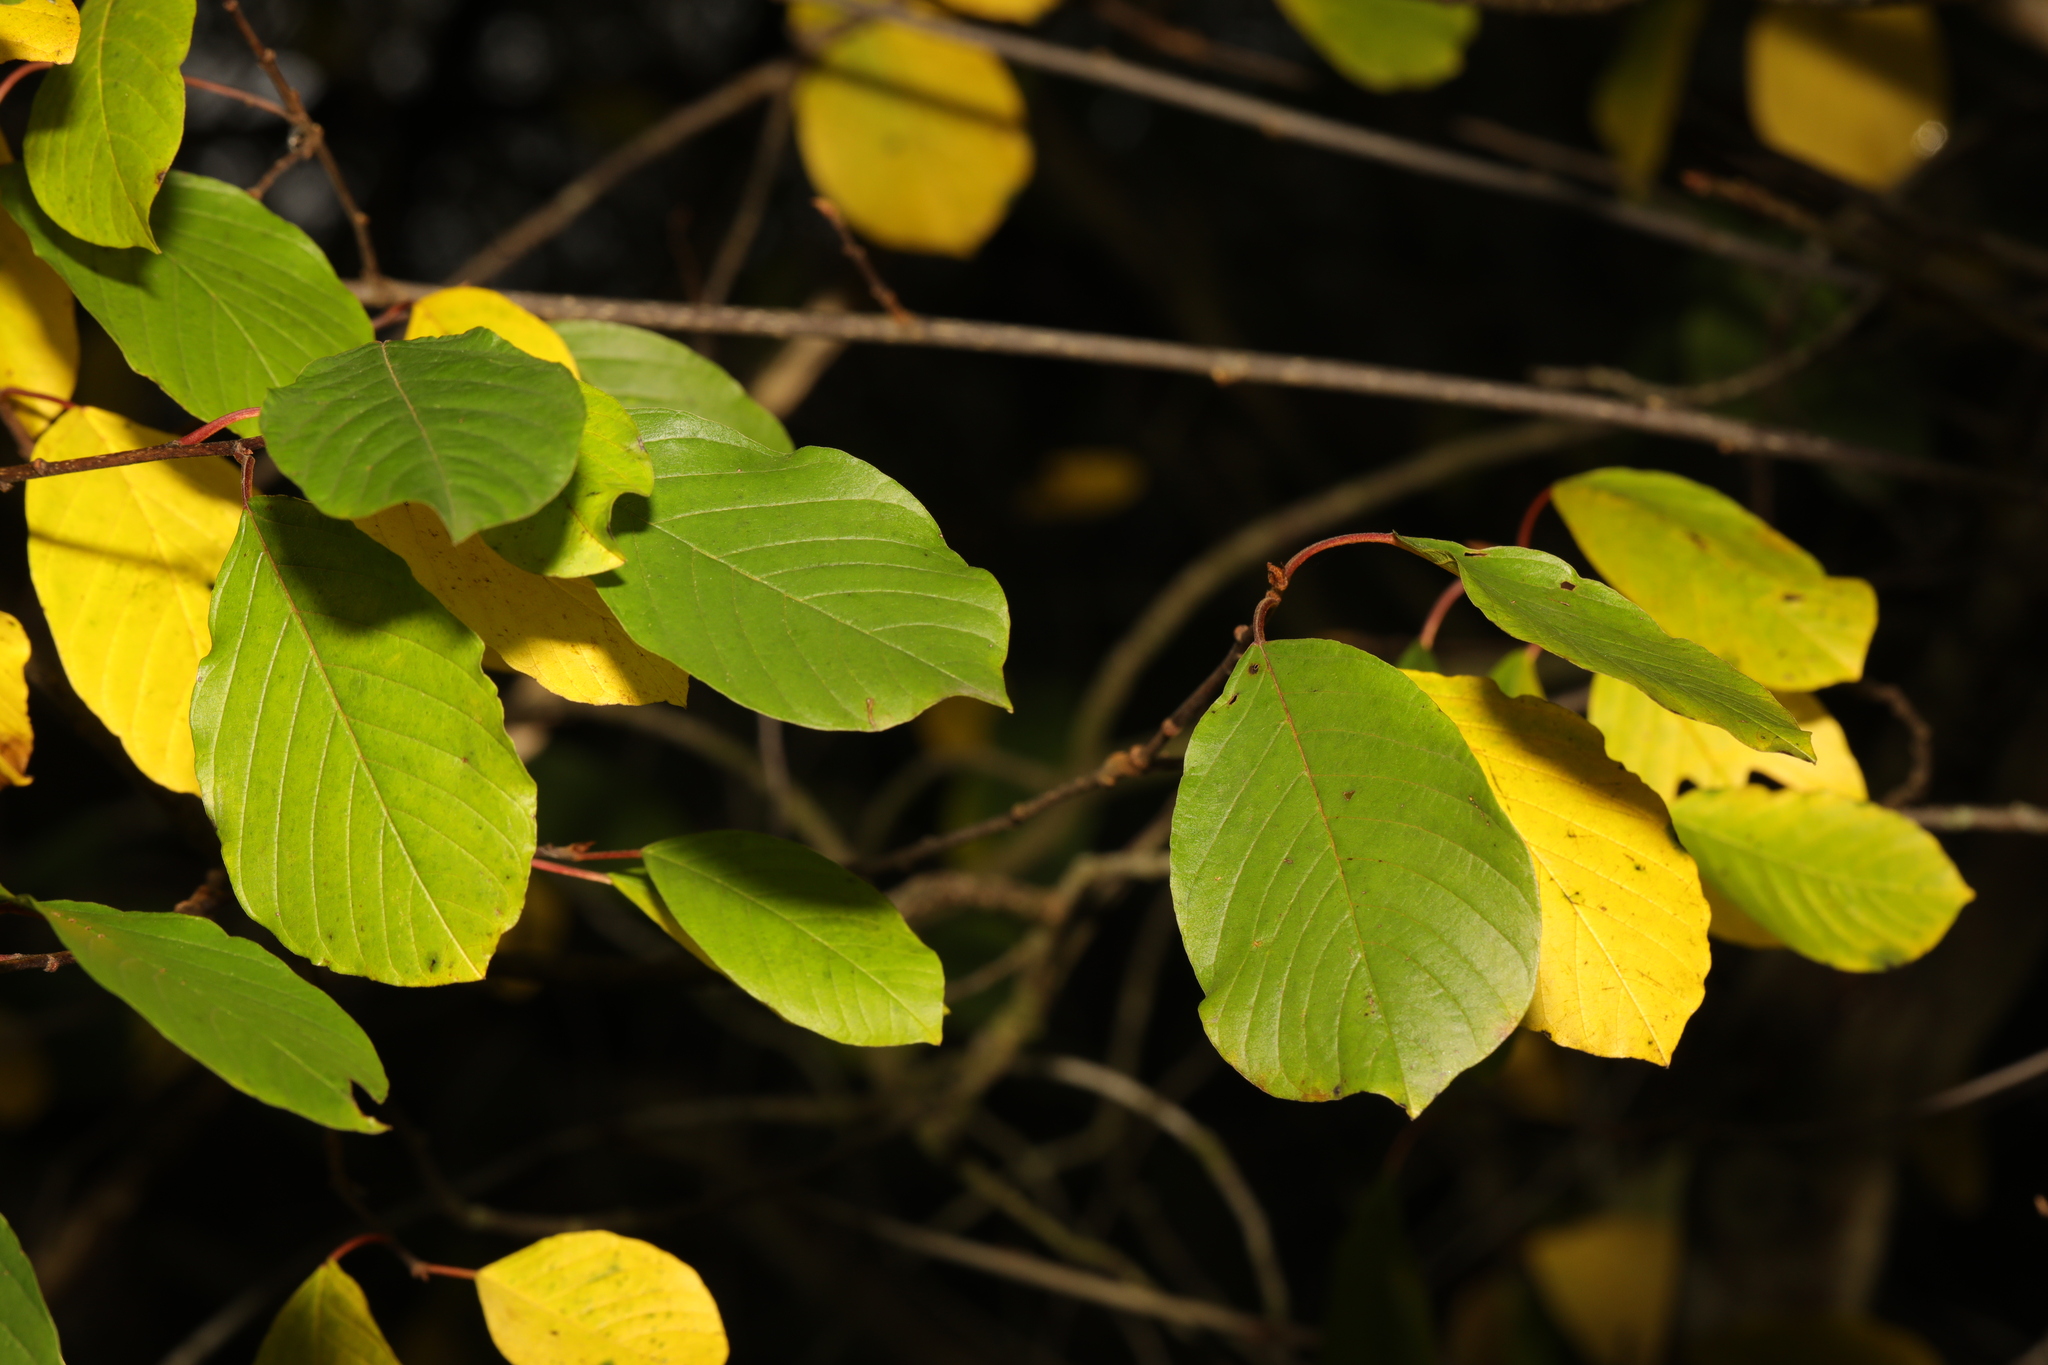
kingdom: Plantae
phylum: Tracheophyta
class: Magnoliopsida
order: Rosales
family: Rhamnaceae
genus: Frangula
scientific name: Frangula alnus
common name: Alder buckthorn
